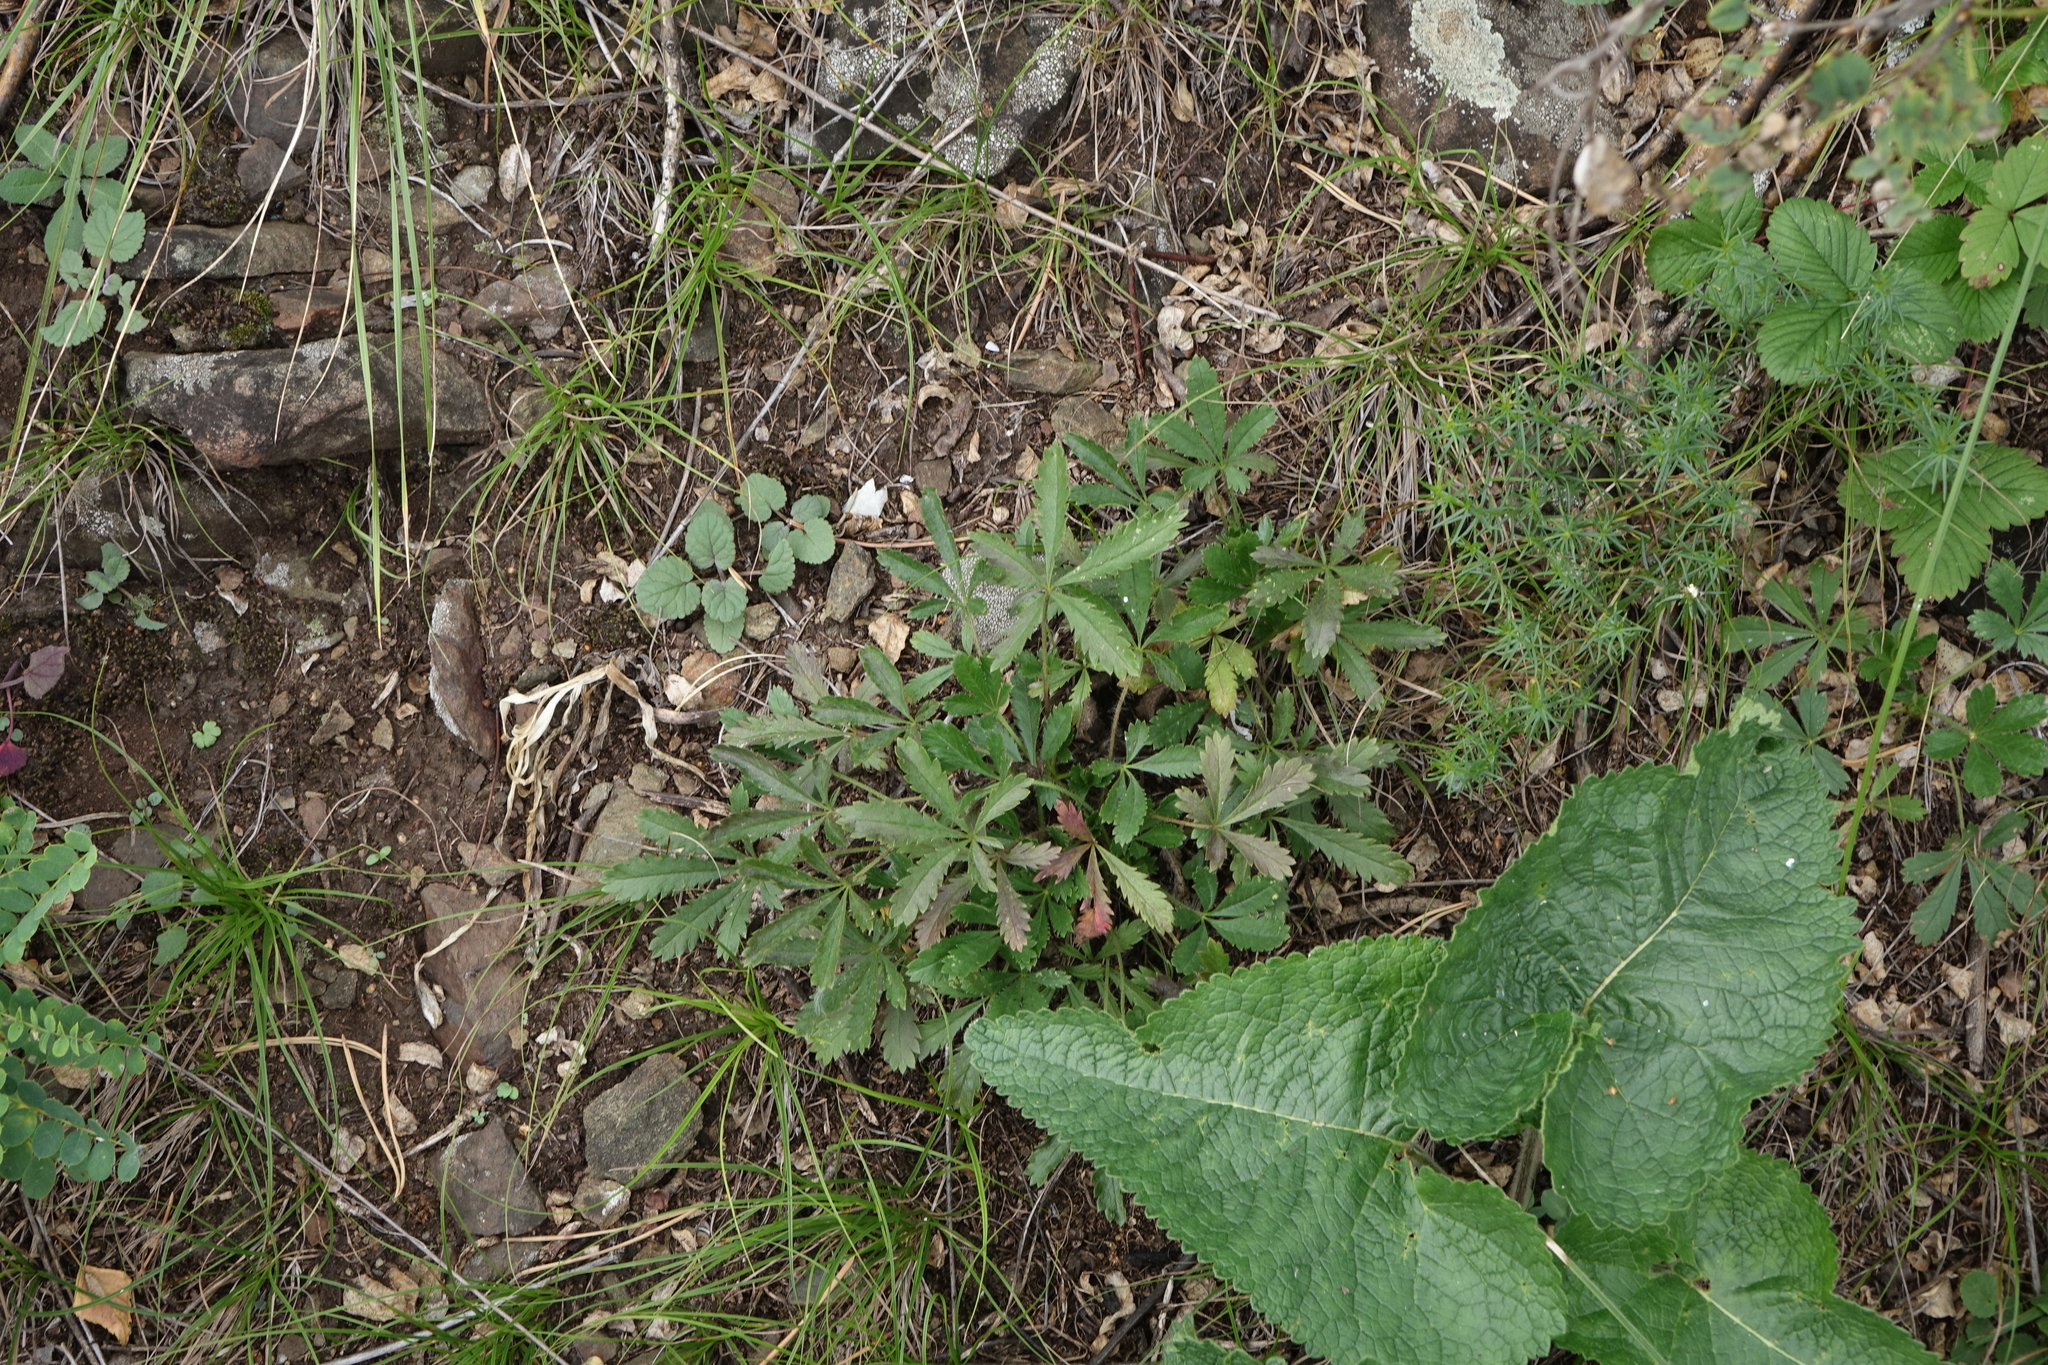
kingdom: Plantae
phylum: Tracheophyta
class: Magnoliopsida
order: Lamiales
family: Lamiaceae
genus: Phlomoides
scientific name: Phlomoides tuberosa
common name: Tuberous jerusalem sage
